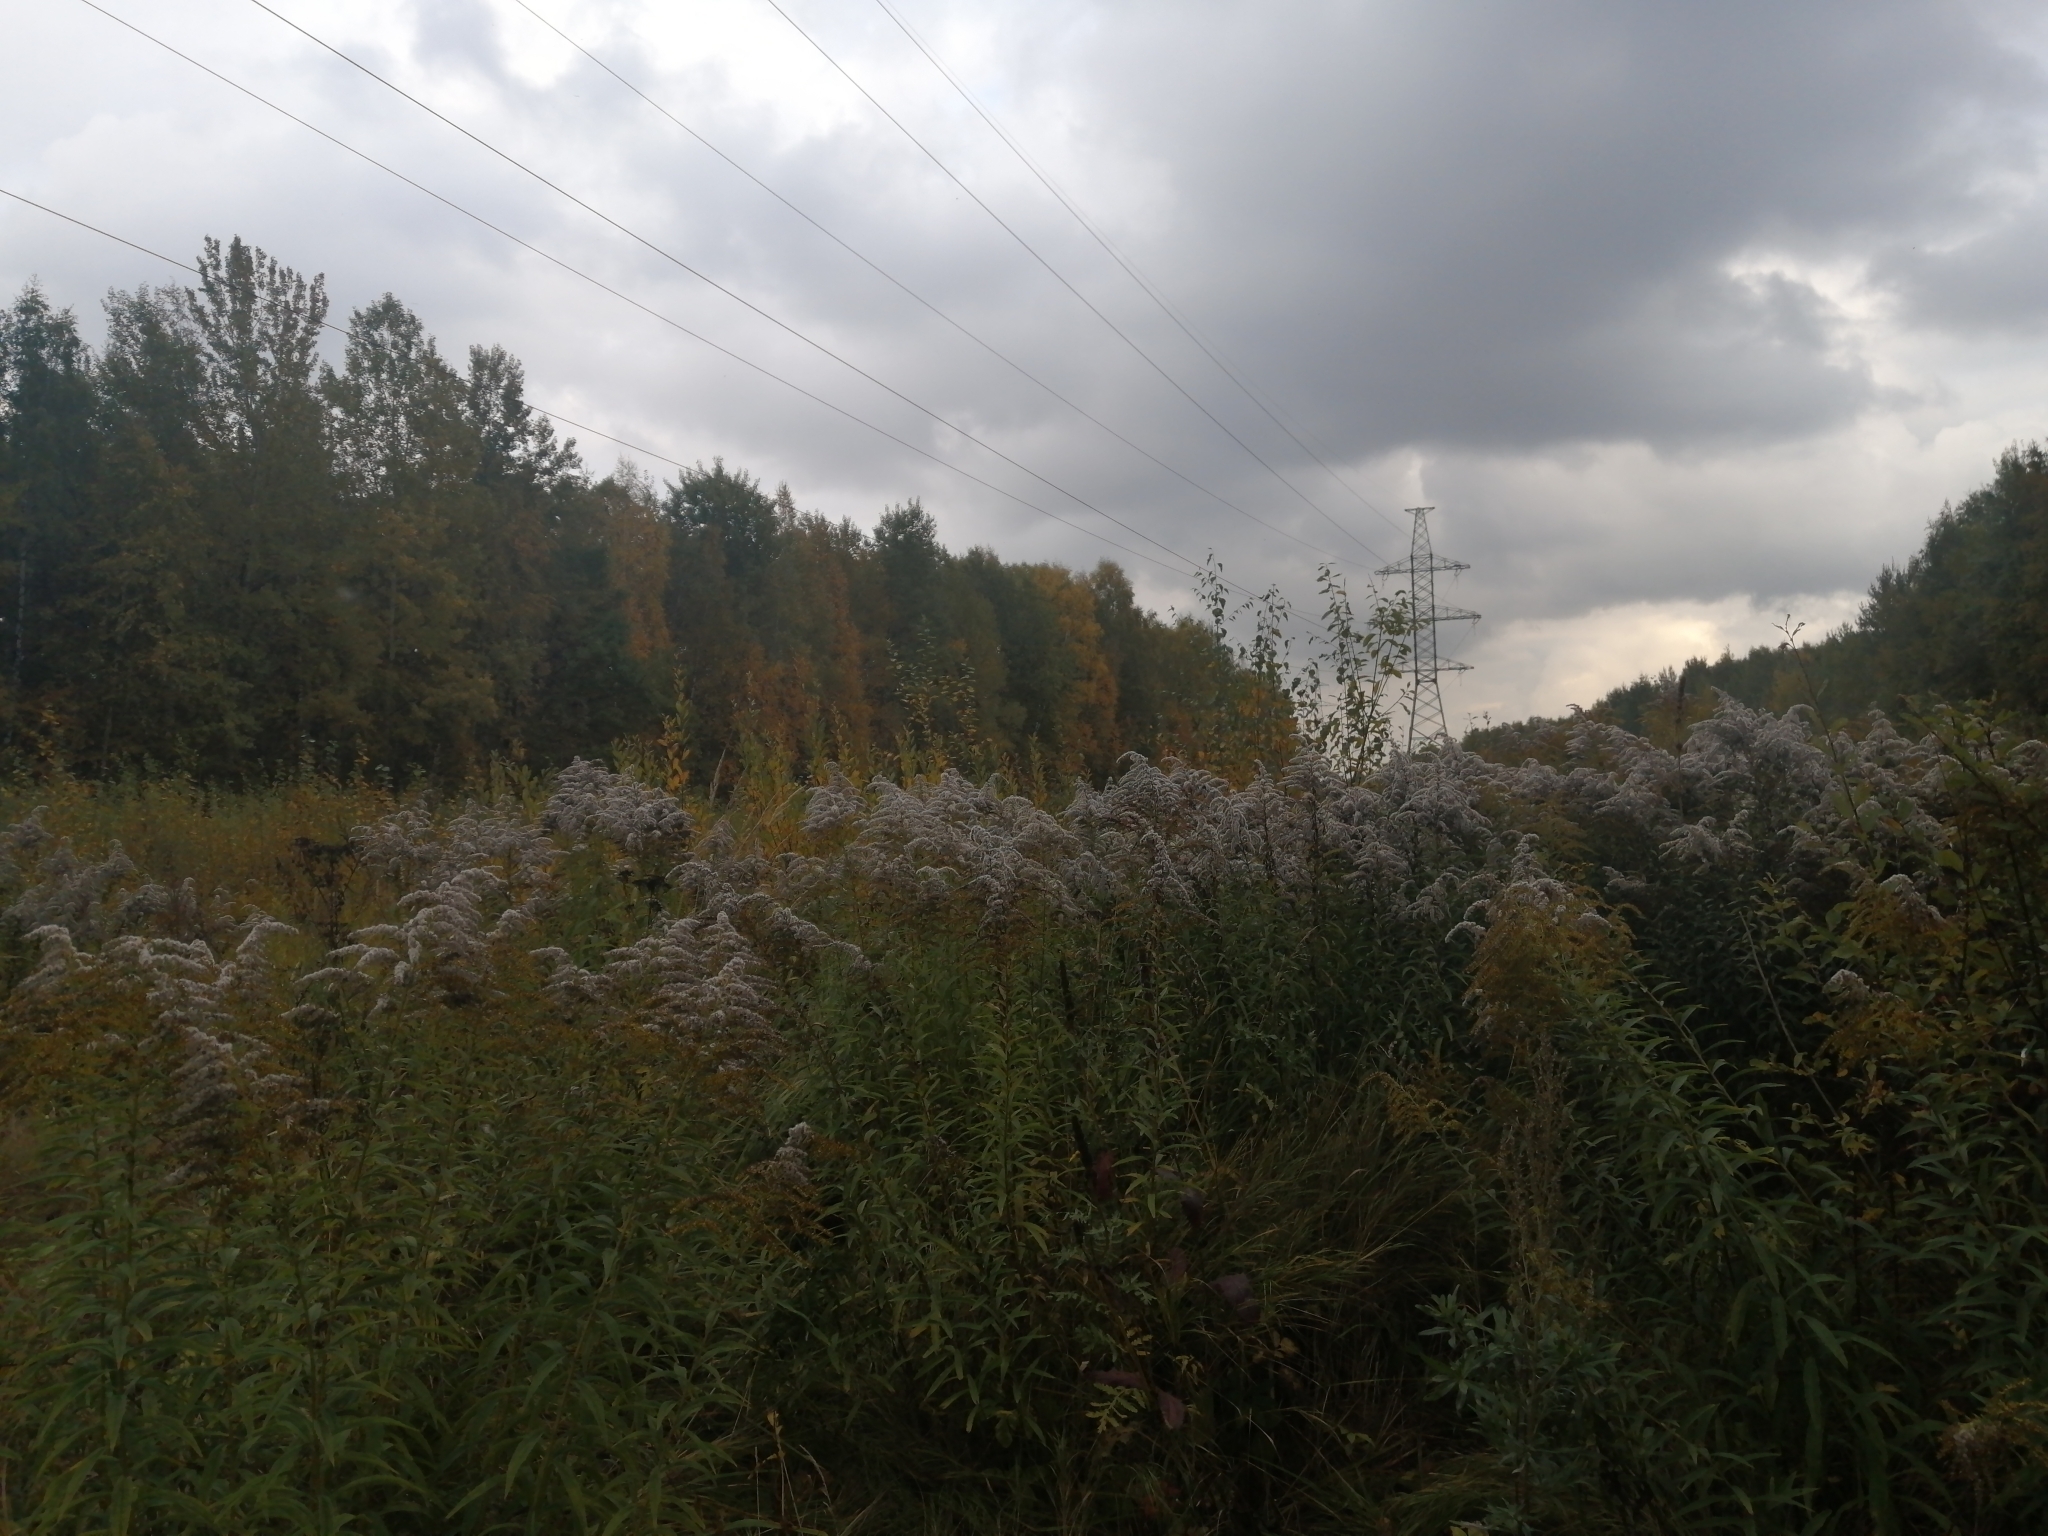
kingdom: Plantae
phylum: Tracheophyta
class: Magnoliopsida
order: Asterales
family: Asteraceae
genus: Solidago
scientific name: Solidago canadensis
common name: Canada goldenrod
